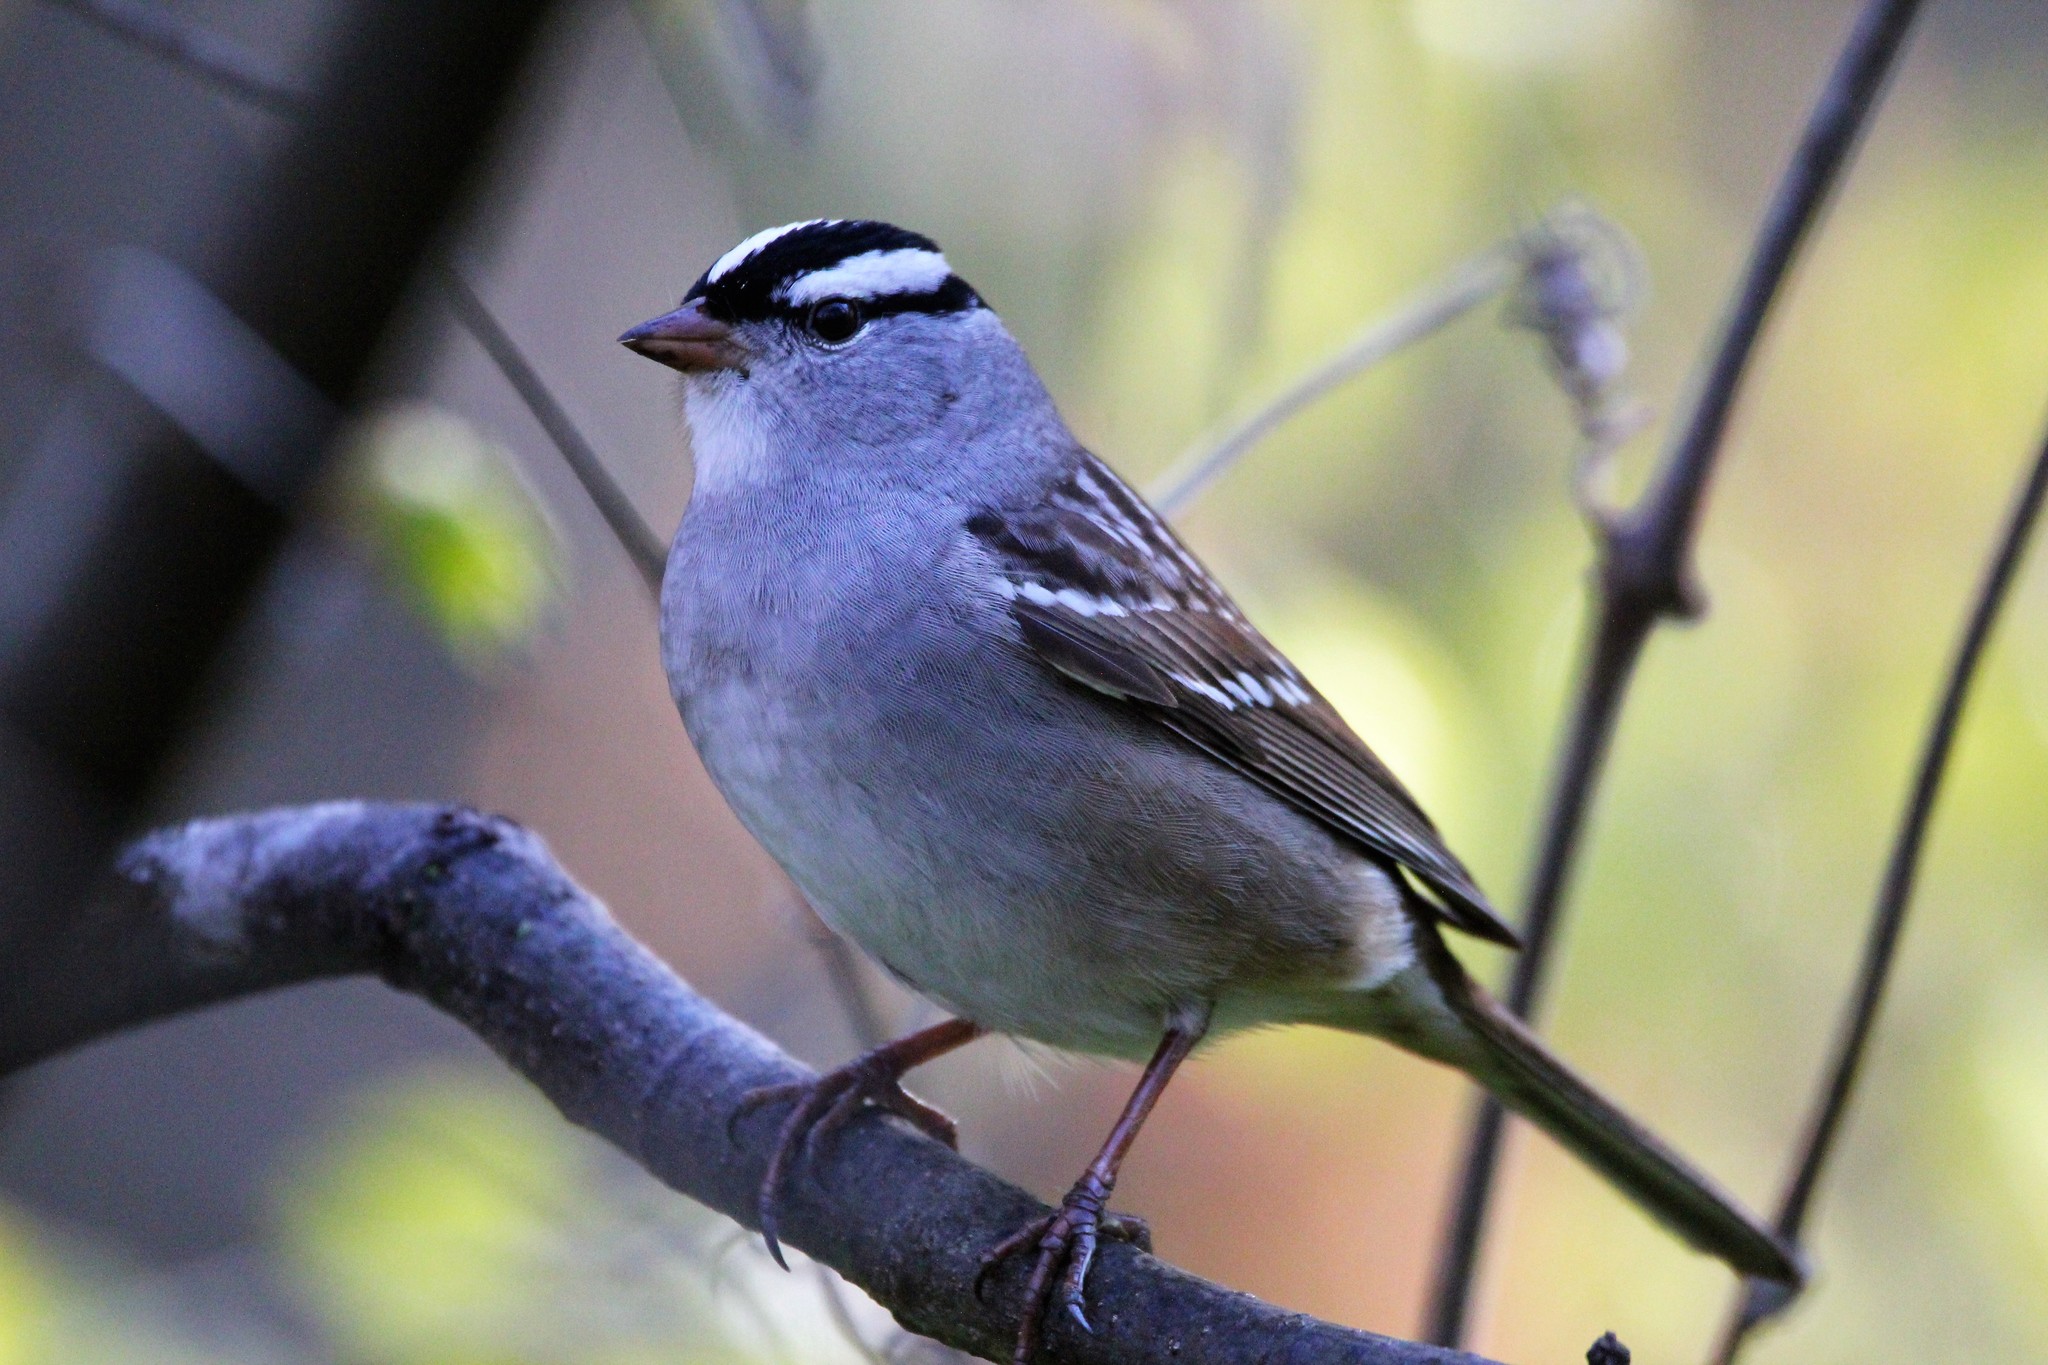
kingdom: Animalia
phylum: Chordata
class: Aves
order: Passeriformes
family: Passerellidae
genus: Zonotrichia
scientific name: Zonotrichia leucophrys
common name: White-crowned sparrow
